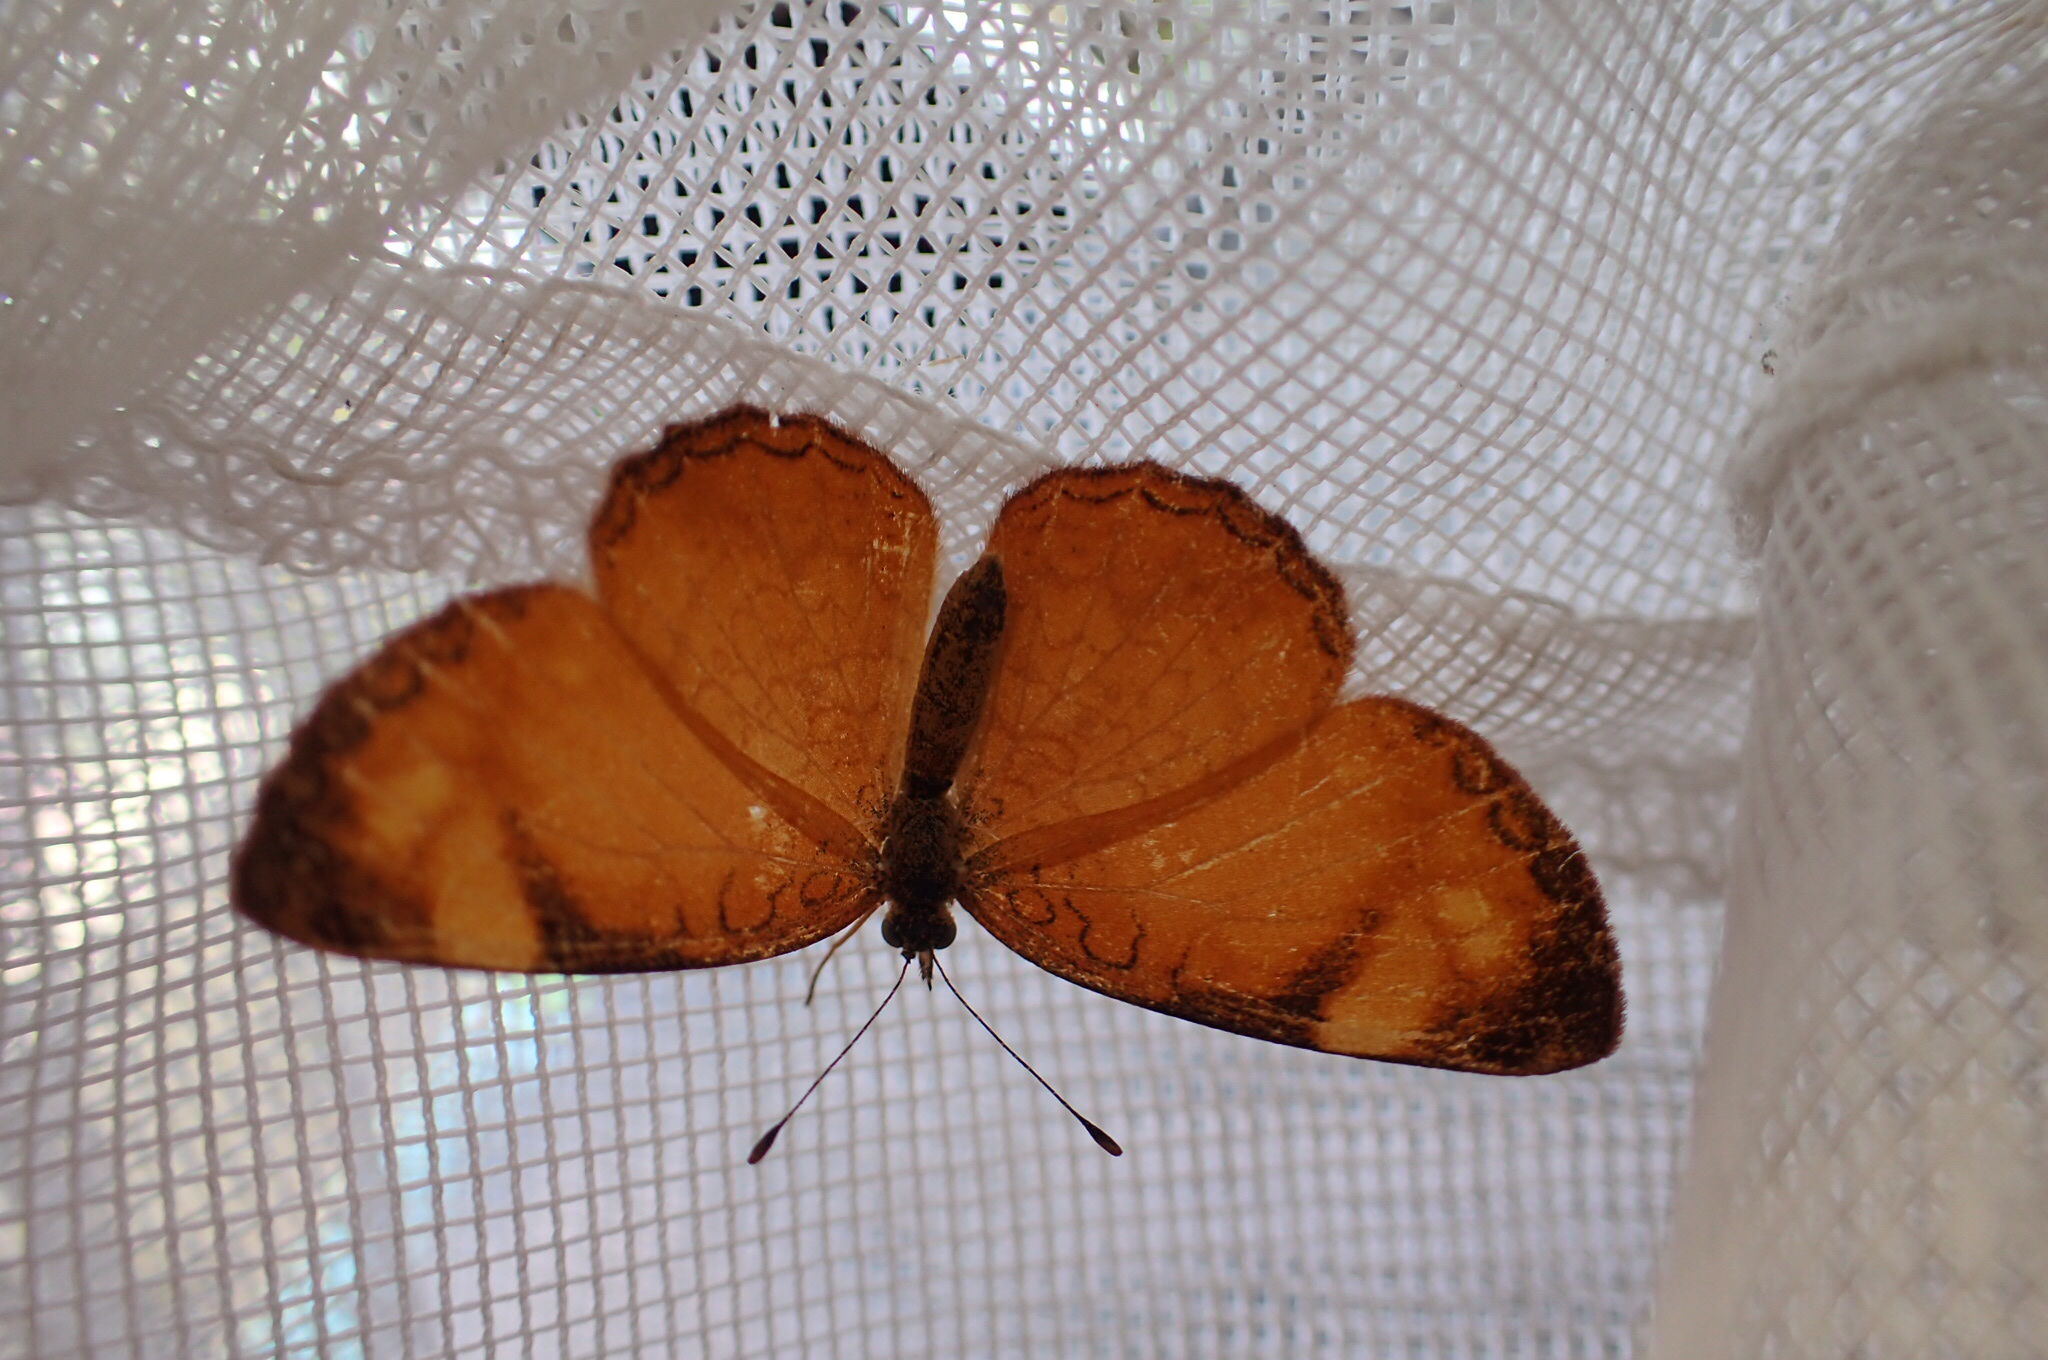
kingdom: Animalia
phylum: Arthropoda
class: Insecta
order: Lepidoptera
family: Nymphalidae
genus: Tegosa
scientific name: Tegosa guatemalena
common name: Guatemalan crescent
